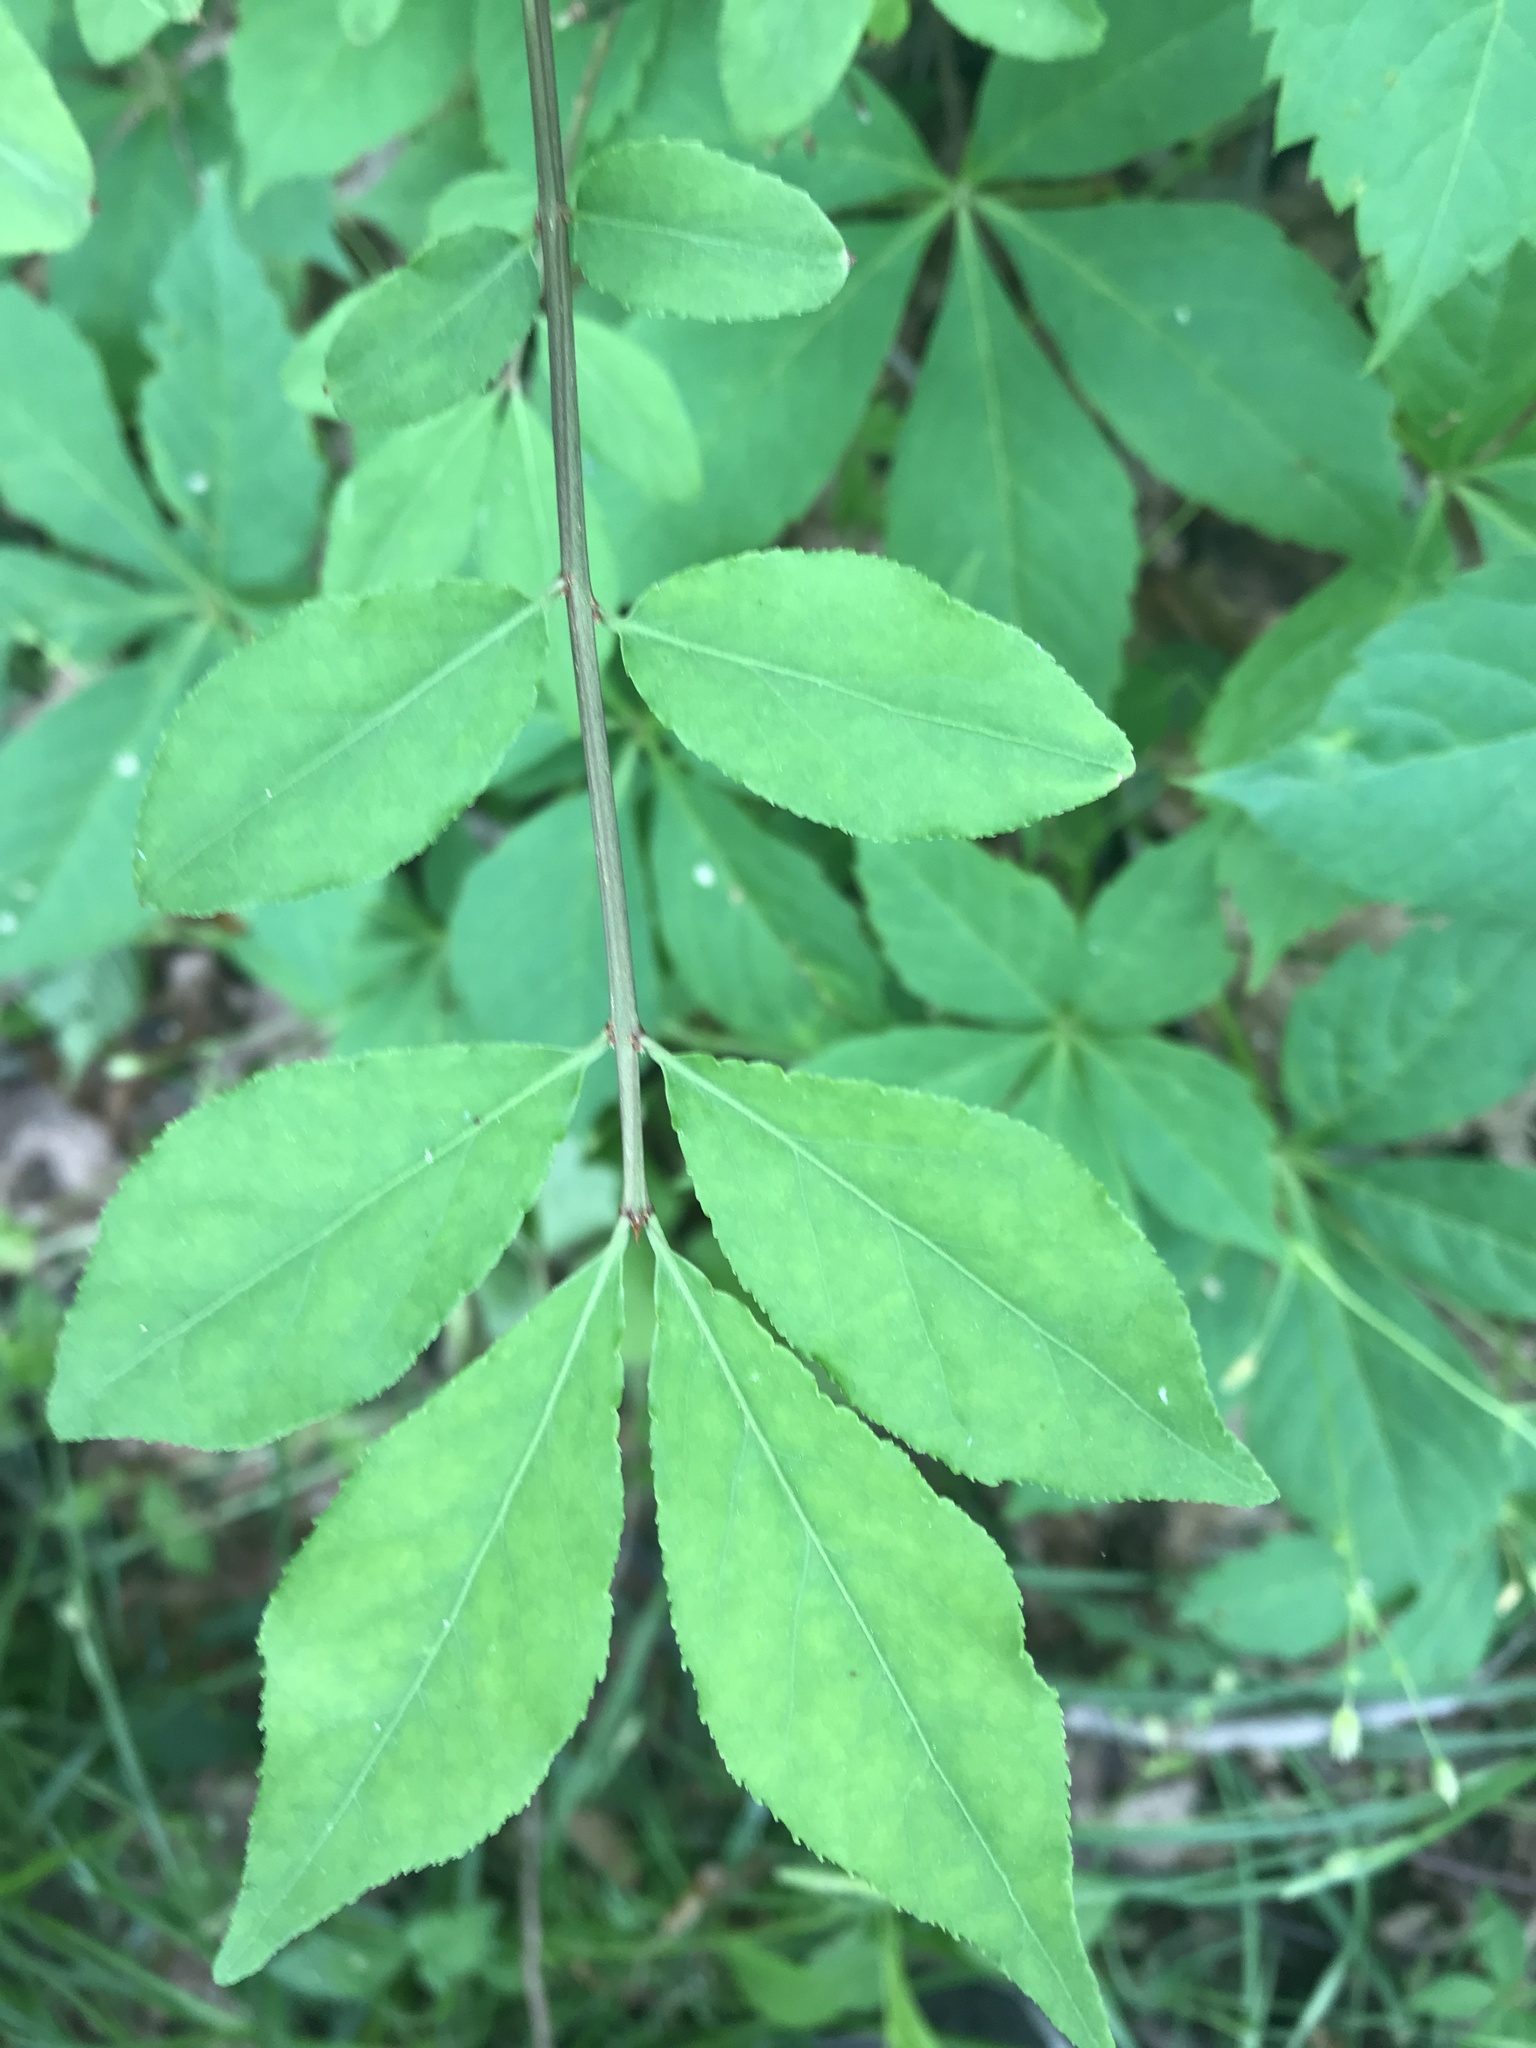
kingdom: Plantae
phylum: Tracheophyta
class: Magnoliopsida
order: Celastrales
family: Celastraceae
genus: Euonymus
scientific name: Euonymus alatus
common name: Winged euonymus
